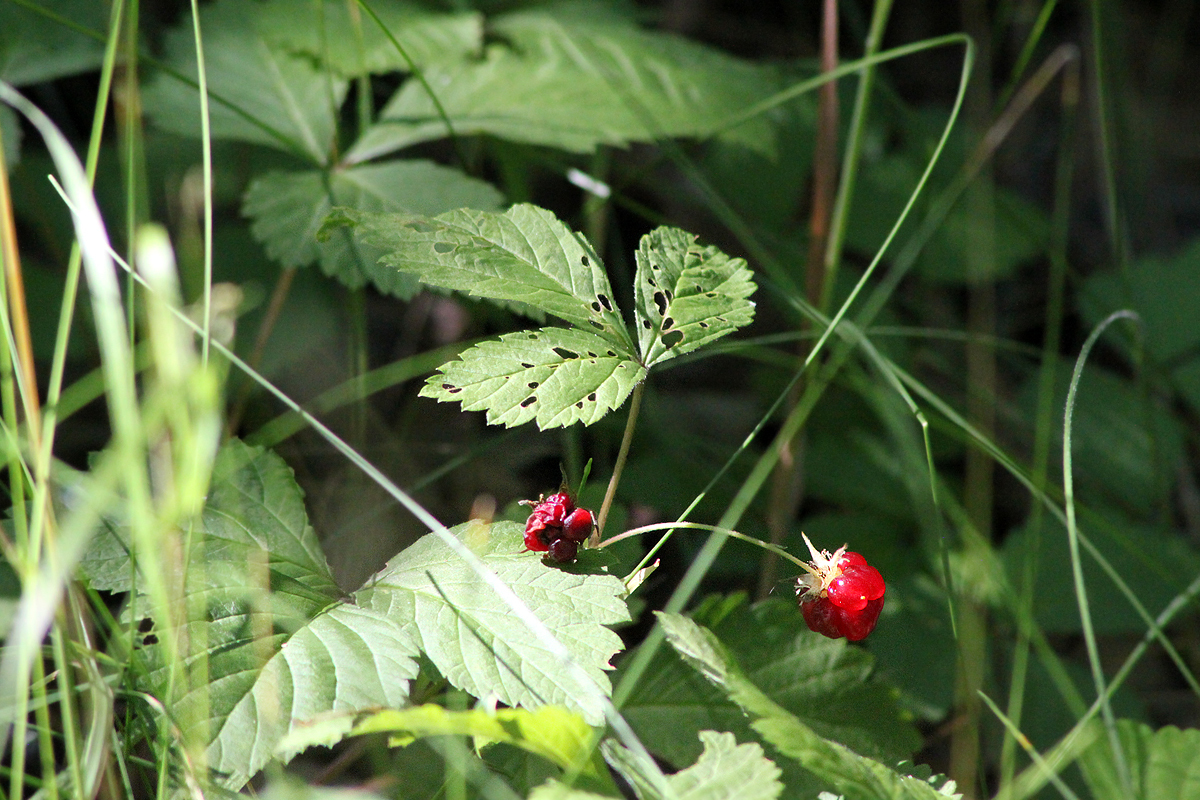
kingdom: Plantae
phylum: Tracheophyta
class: Magnoliopsida
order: Rosales
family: Rosaceae
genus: Rubus
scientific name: Rubus pubescens
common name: Dwarf raspberry
